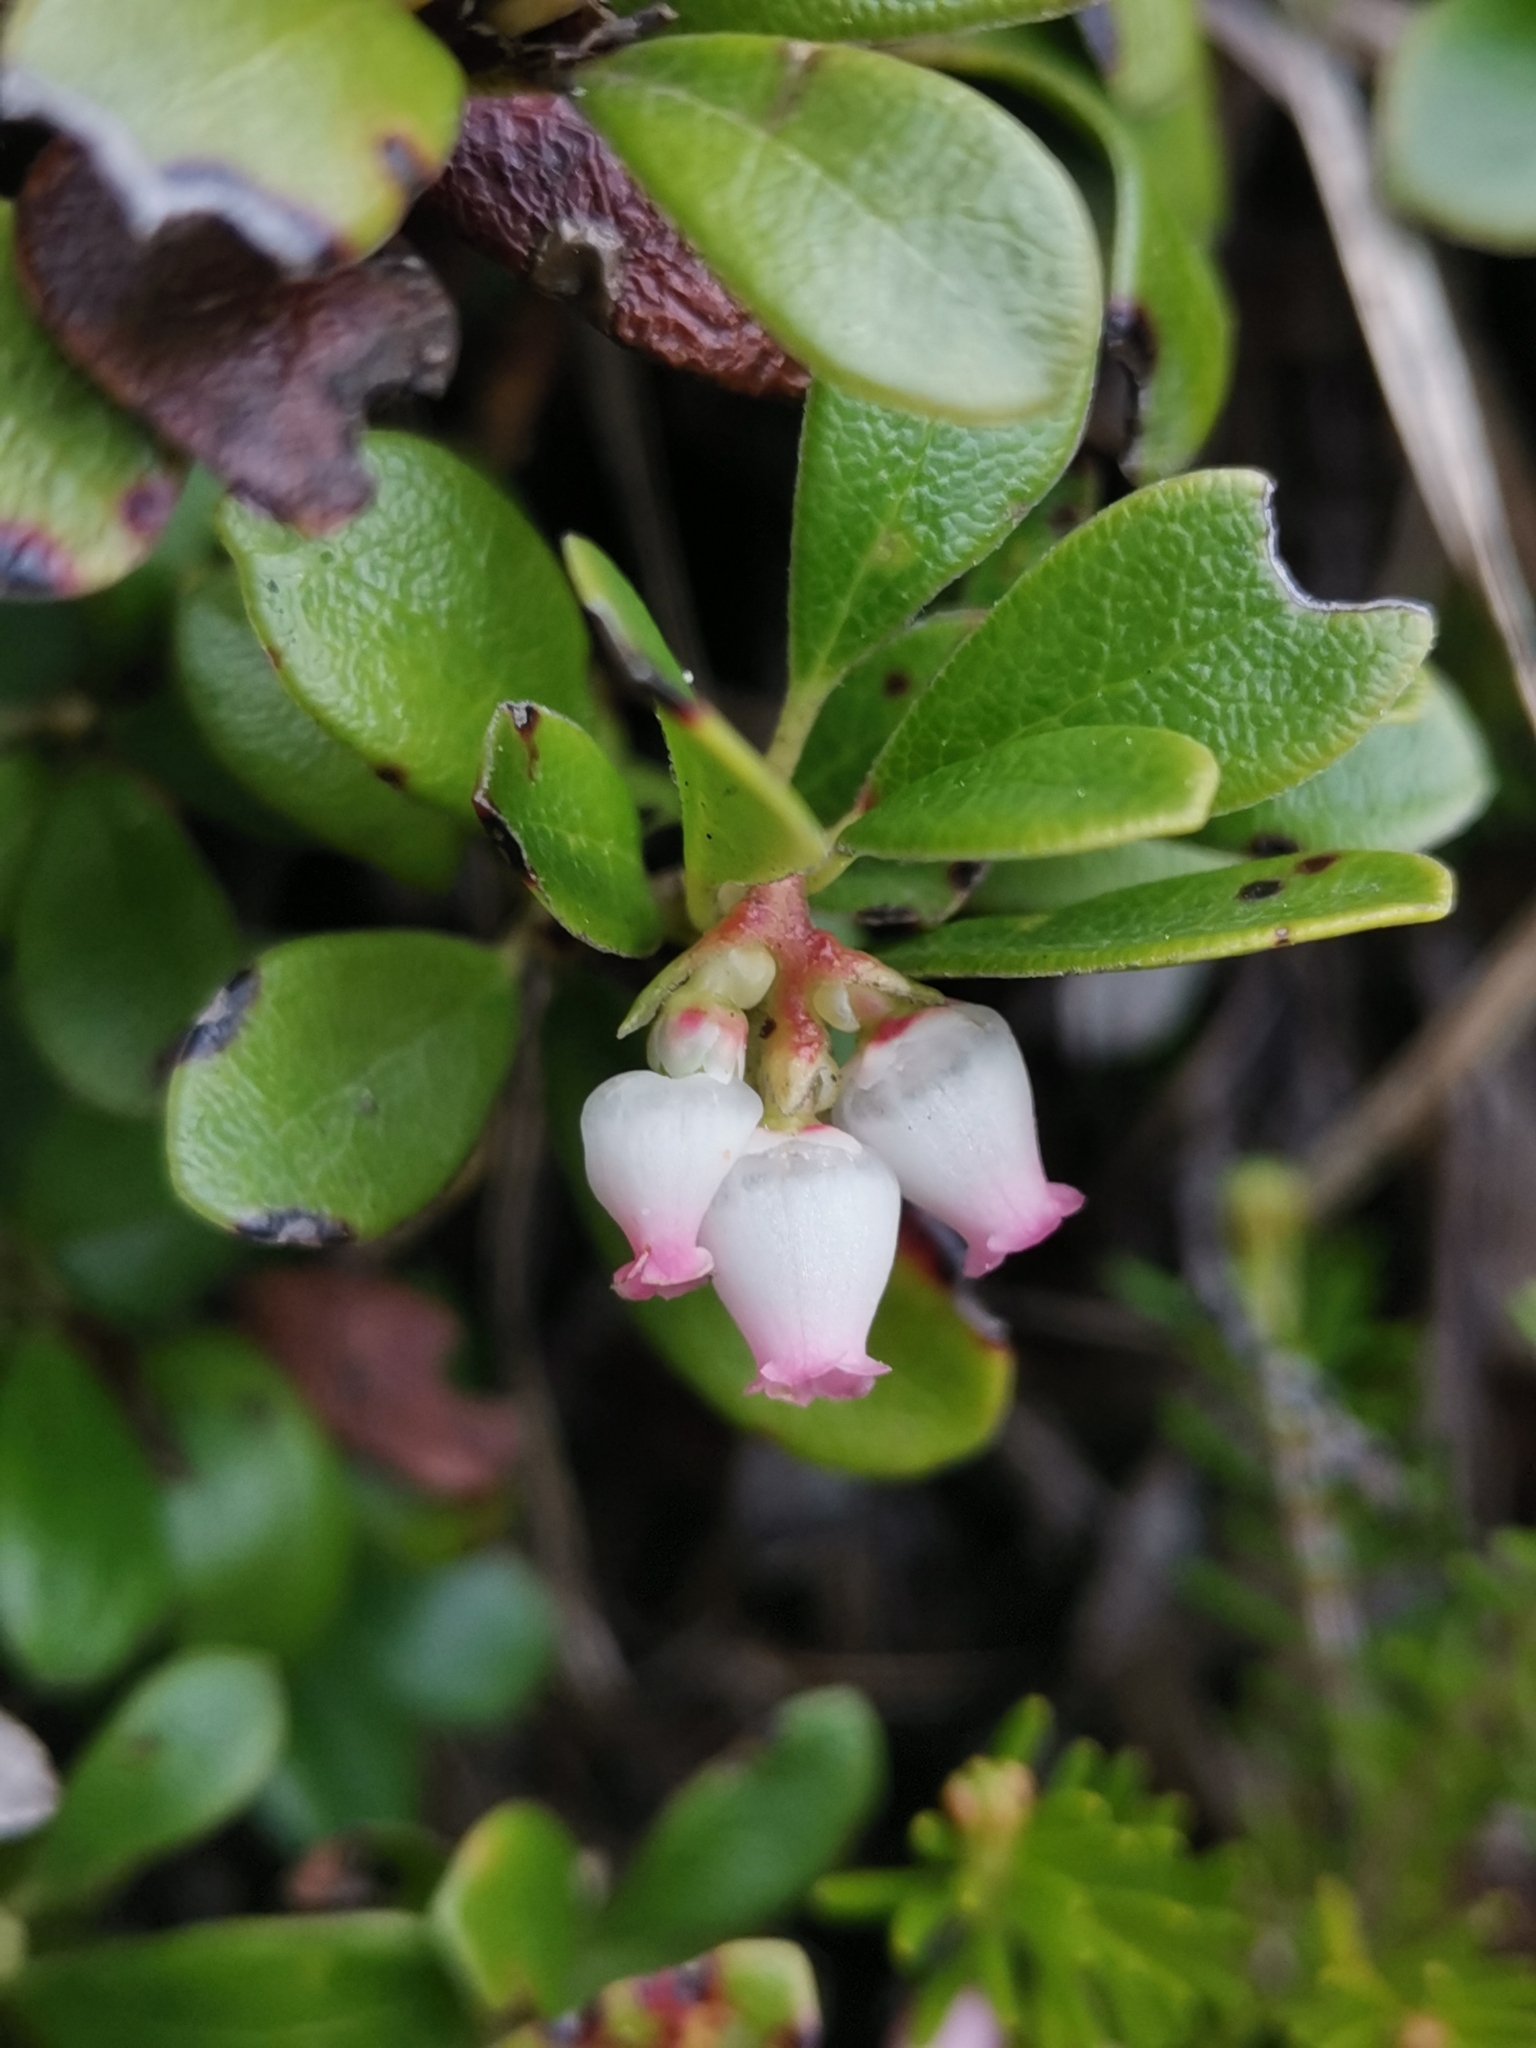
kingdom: Plantae
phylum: Tracheophyta
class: Magnoliopsida
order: Ericales
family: Ericaceae
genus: Arctostaphylos
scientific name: Arctostaphylos uva-ursi
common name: Bearberry
